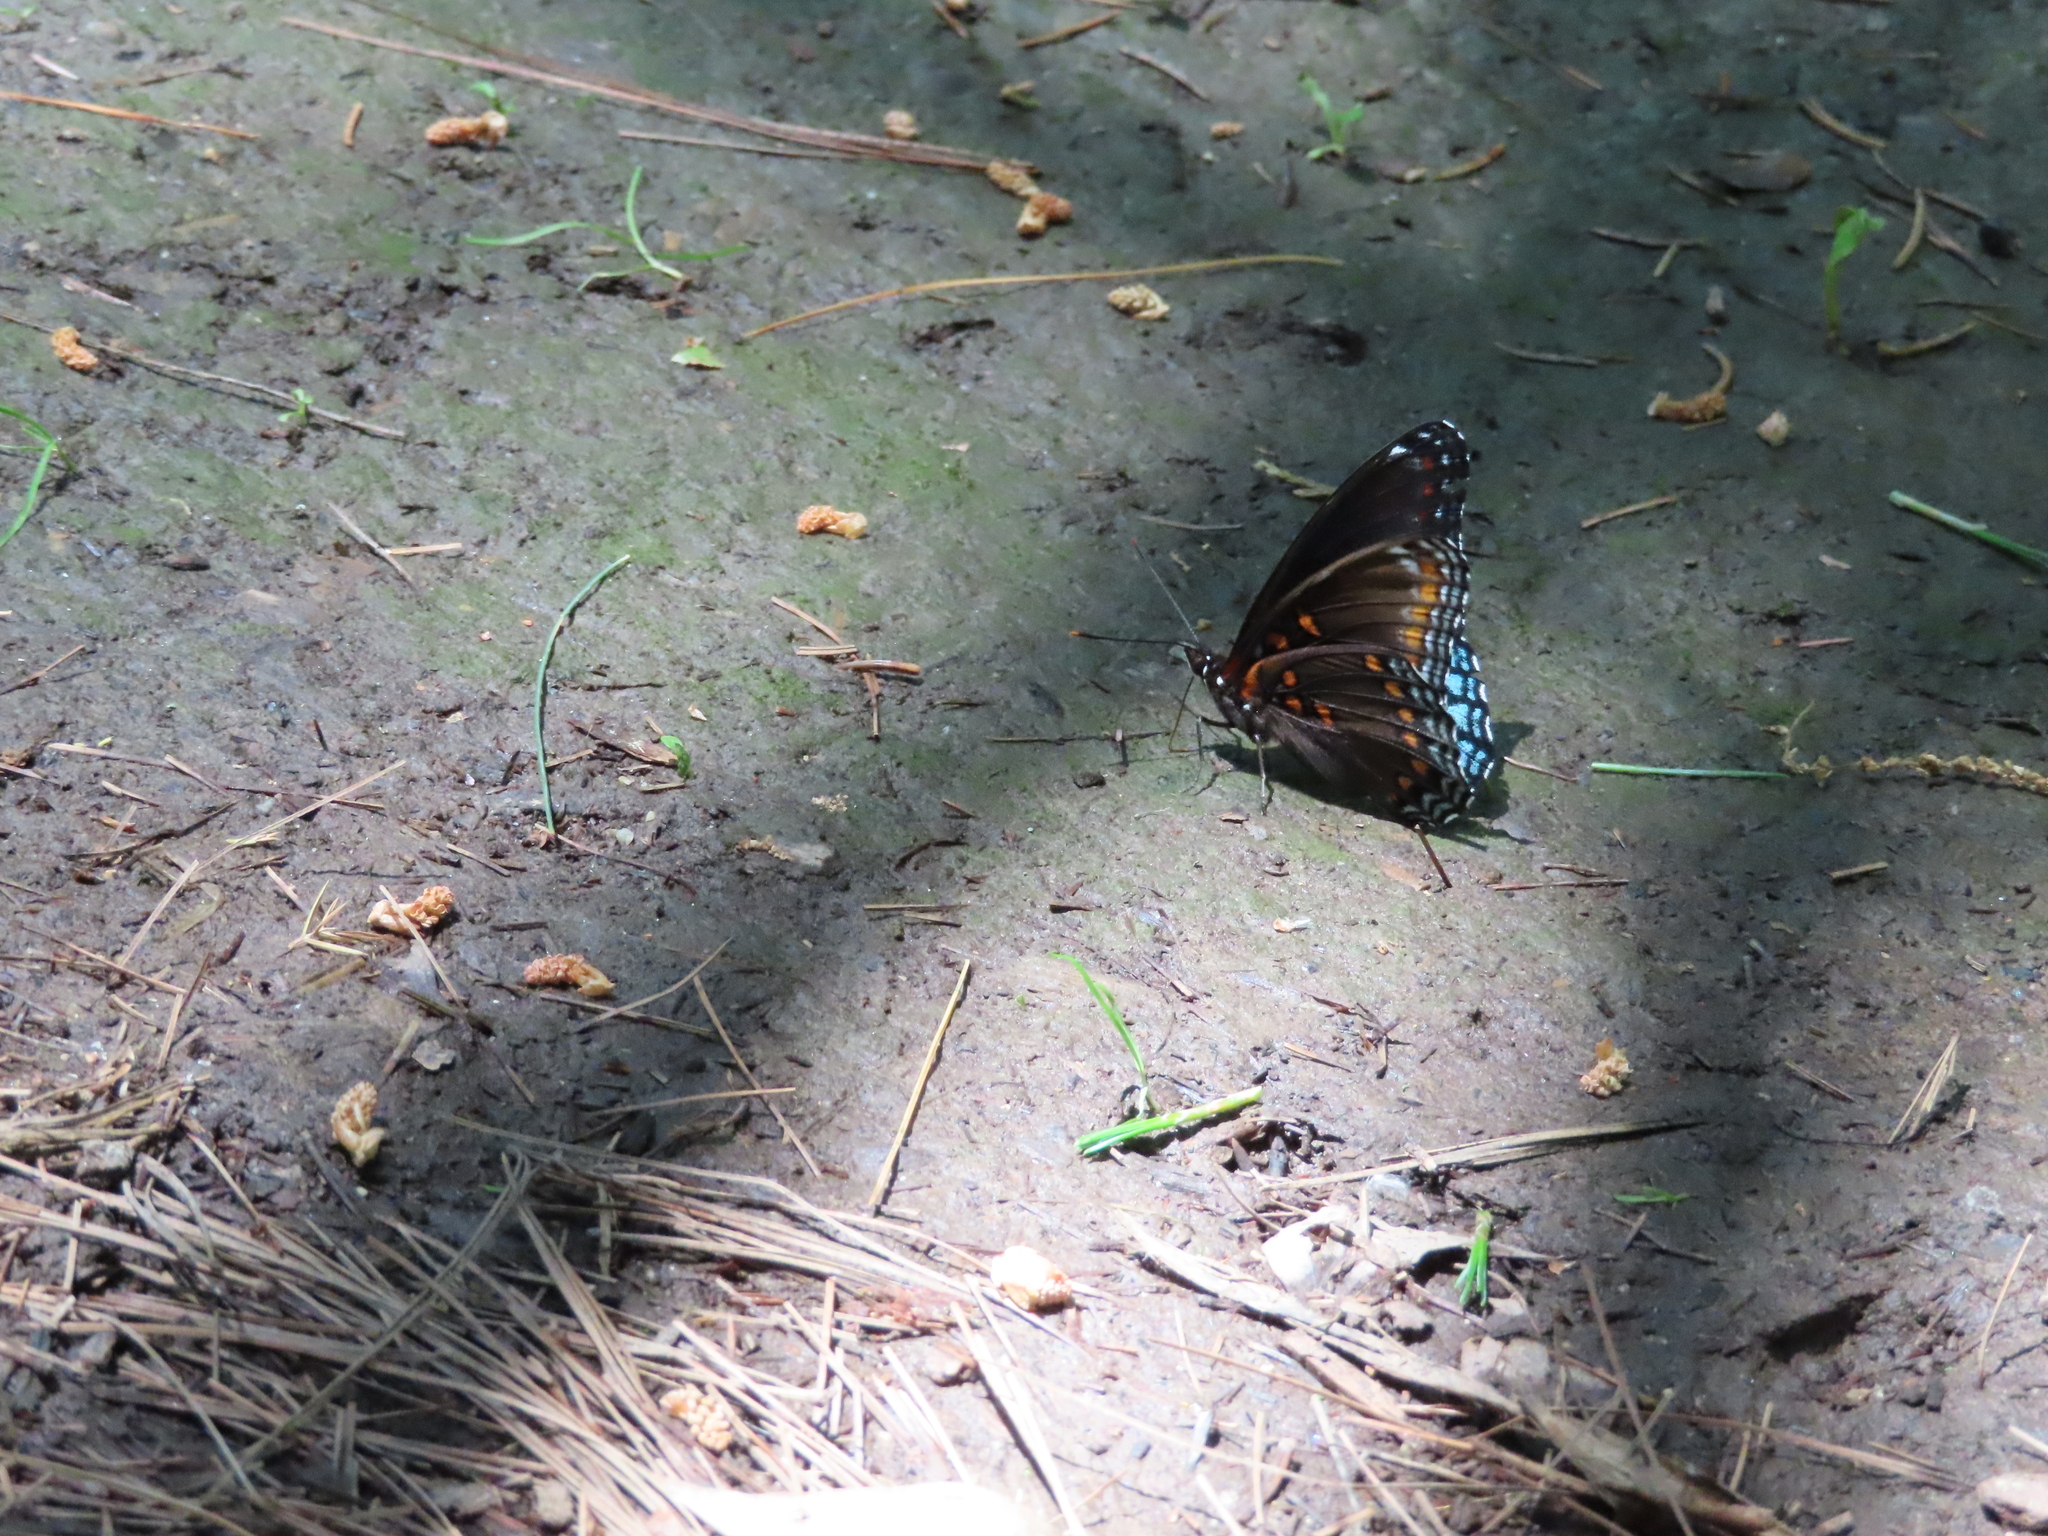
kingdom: Animalia
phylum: Arthropoda
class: Insecta
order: Lepidoptera
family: Nymphalidae
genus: Limenitis
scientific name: Limenitis astyanax
